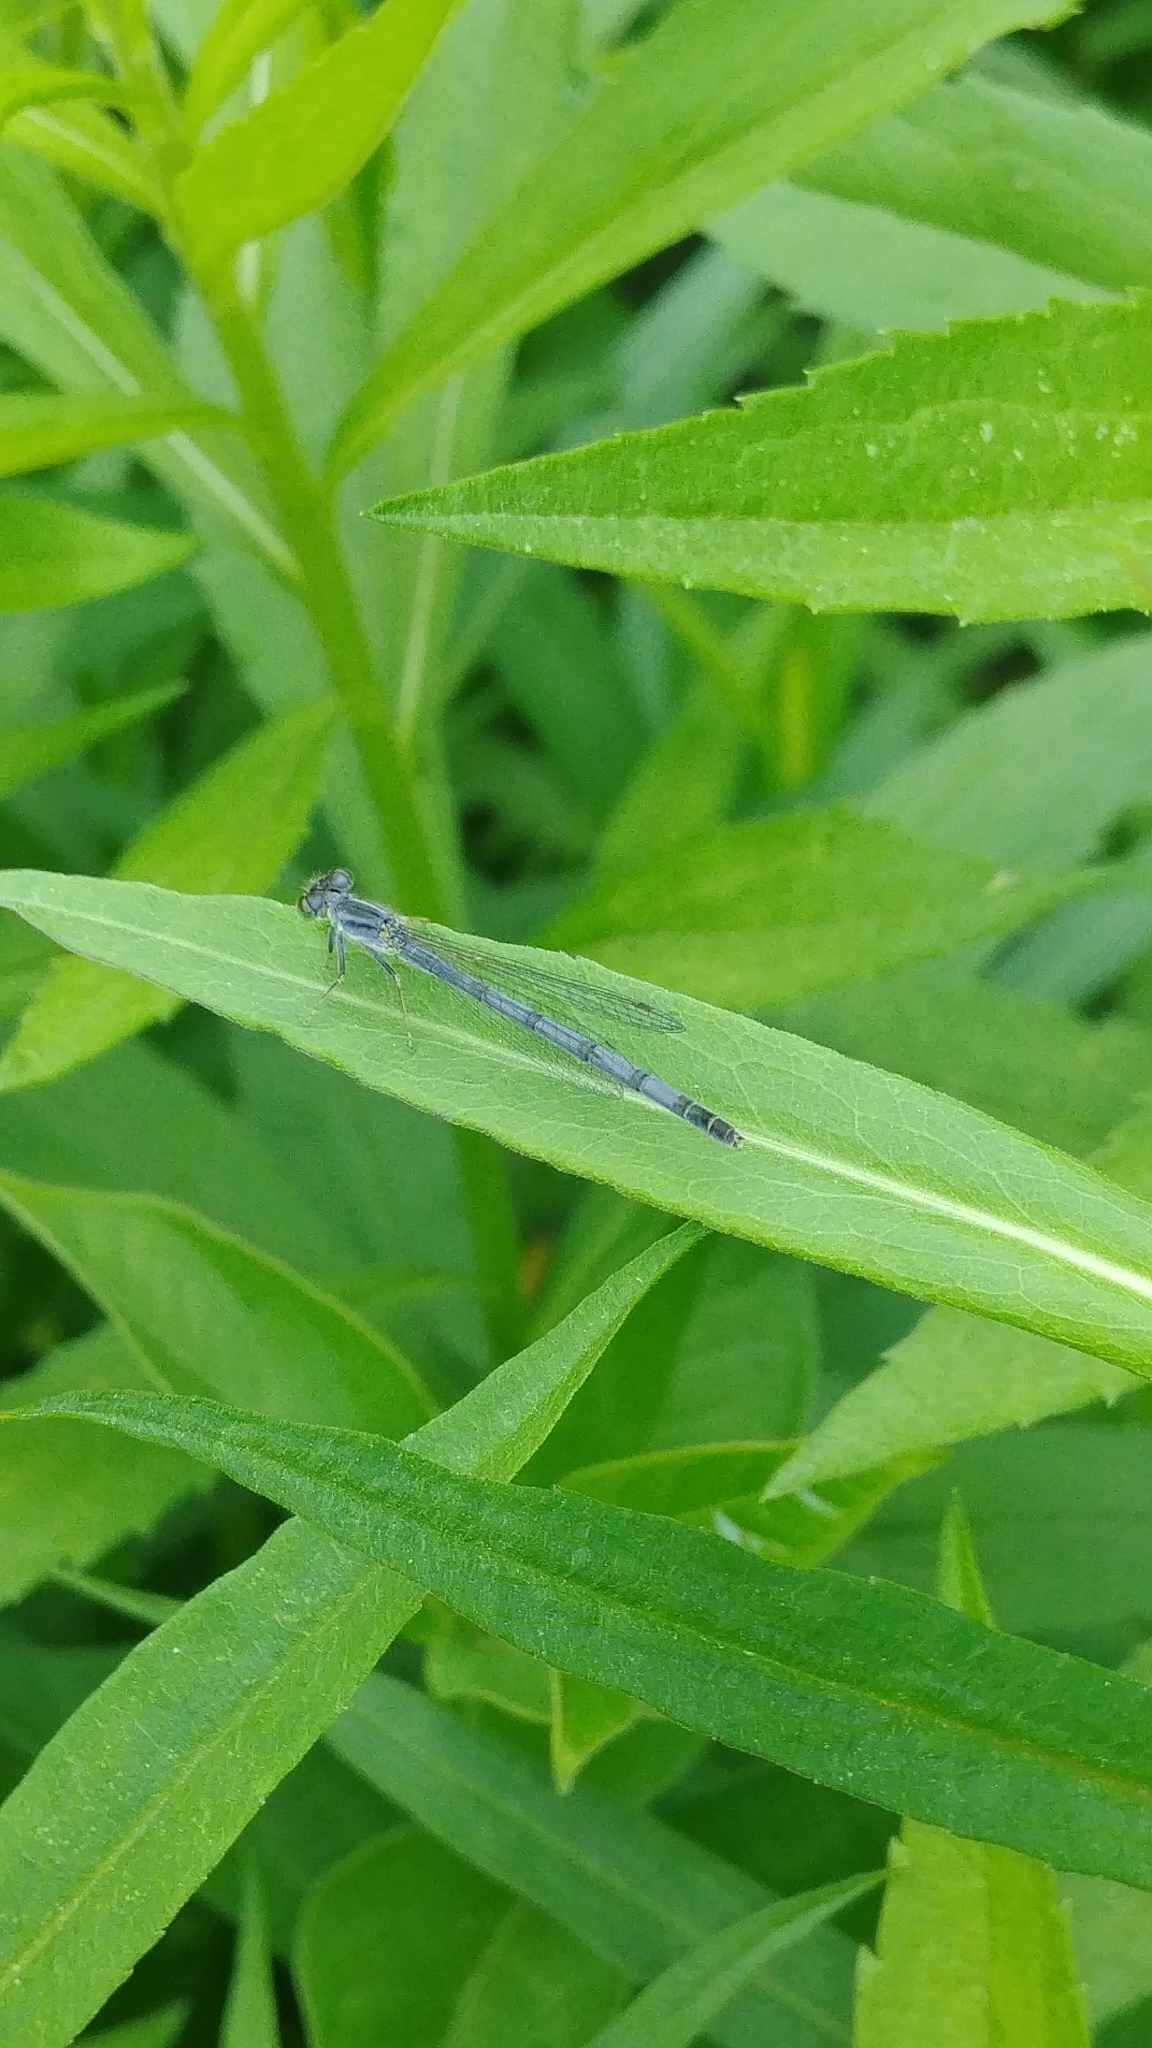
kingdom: Animalia
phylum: Arthropoda
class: Insecta
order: Odonata
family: Coenagrionidae
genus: Ischnura
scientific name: Ischnura verticalis
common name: Eastern forktail
